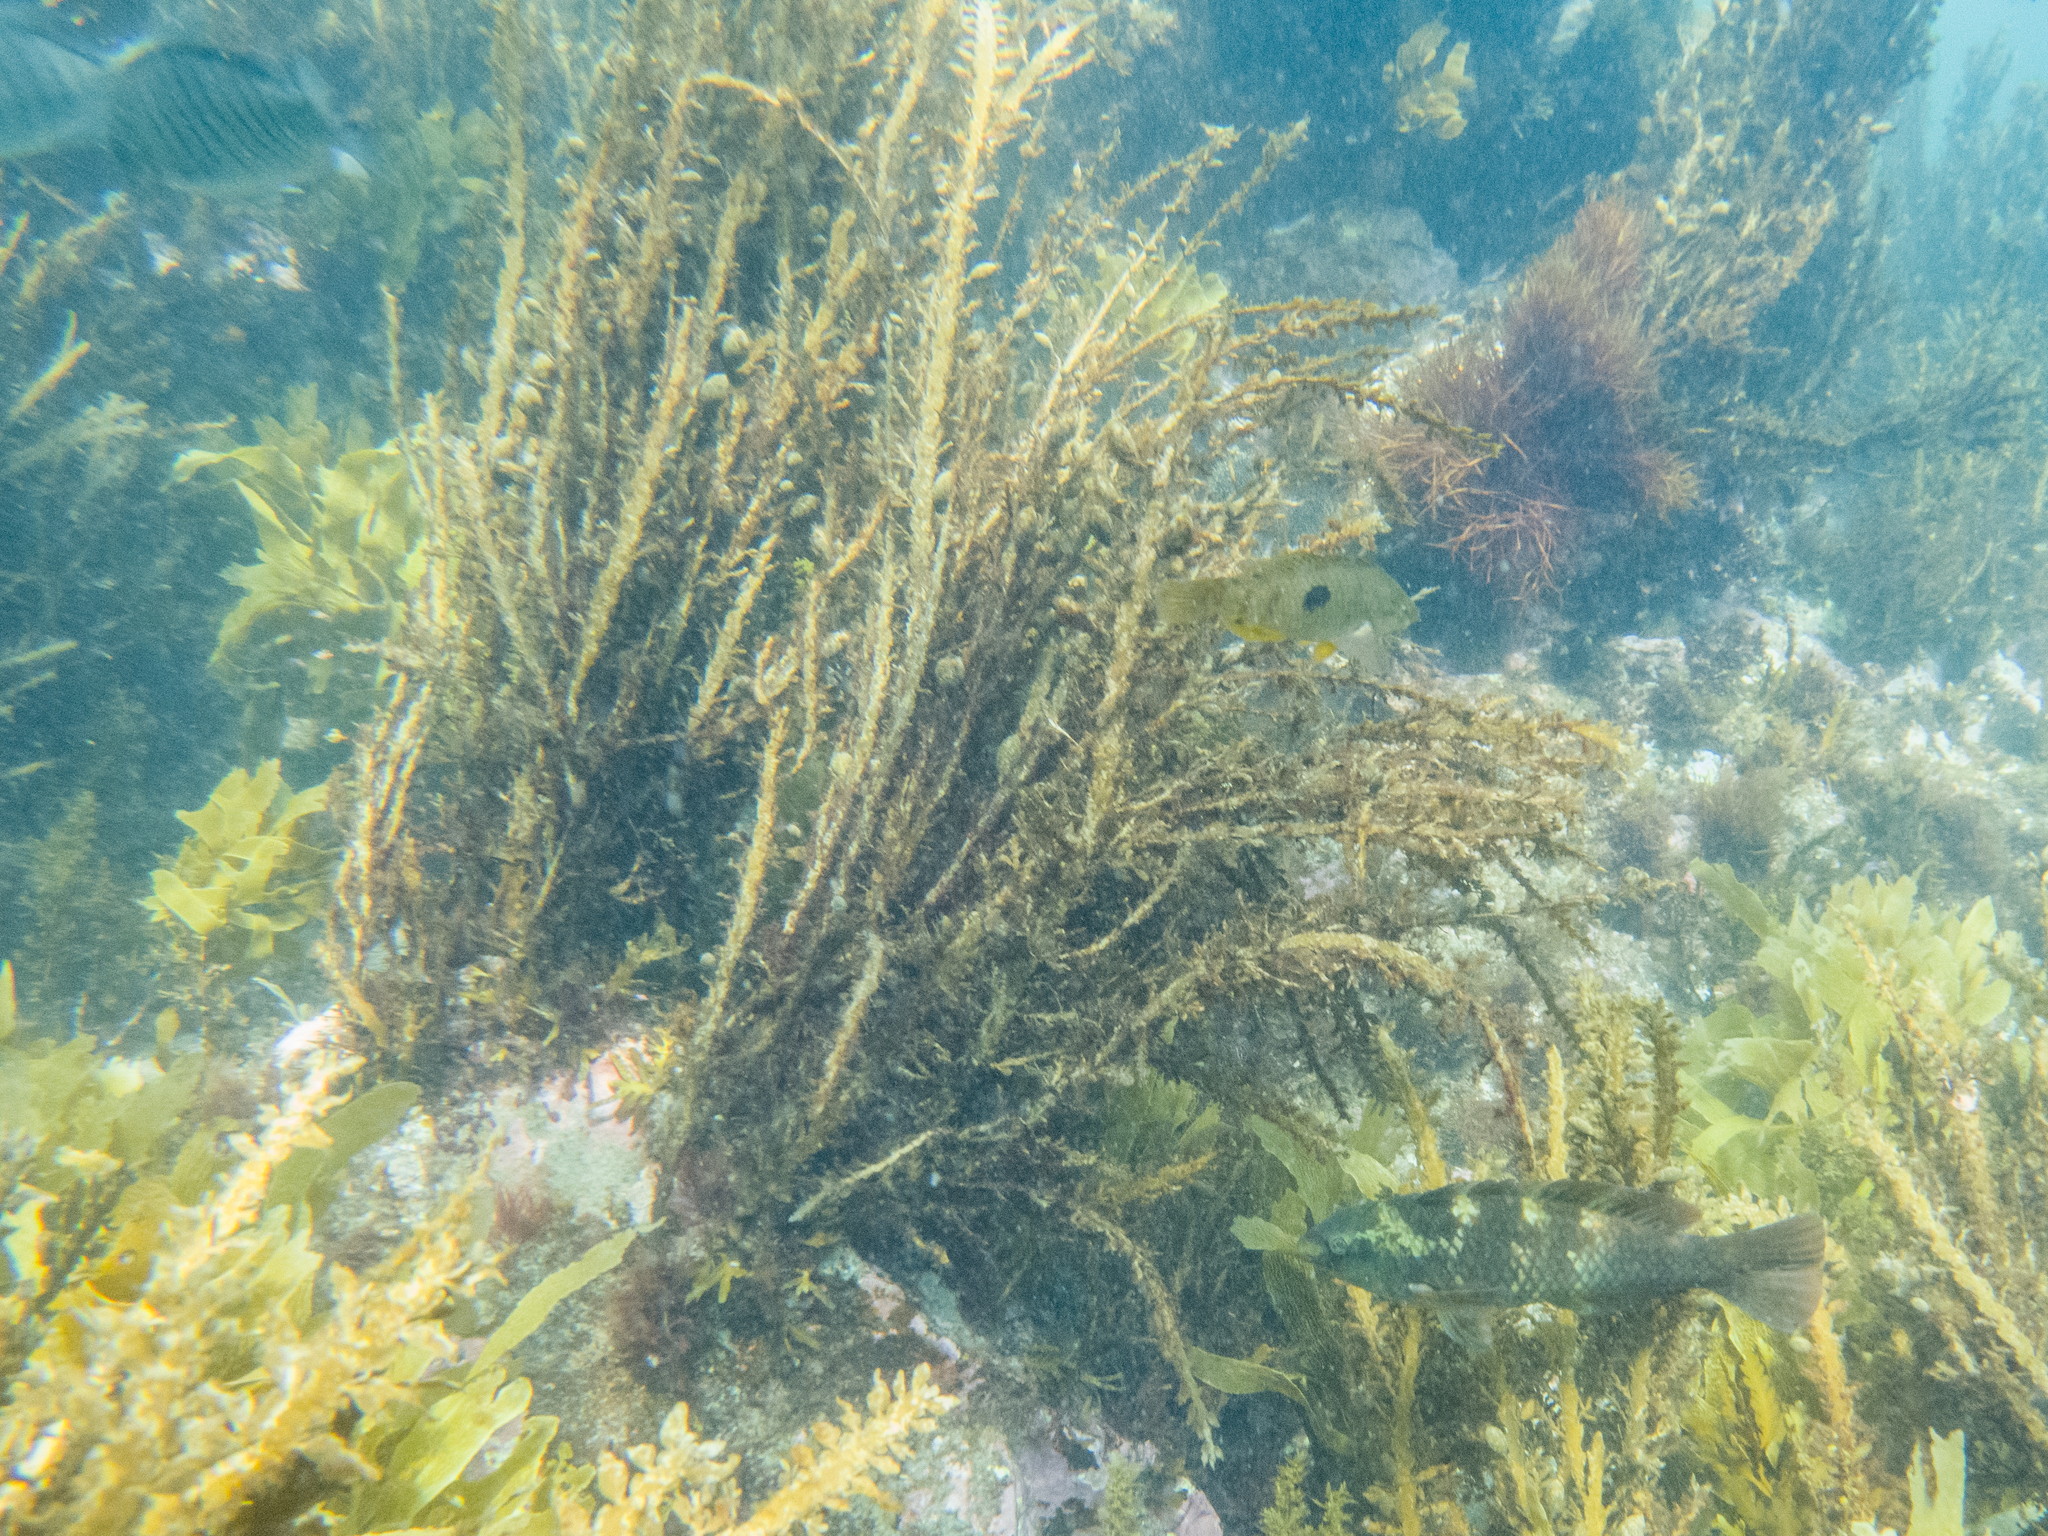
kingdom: Animalia
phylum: Chordata
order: Perciformes
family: Labridae
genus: Notolabrus
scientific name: Notolabrus fucicola
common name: Banded parrotfish
